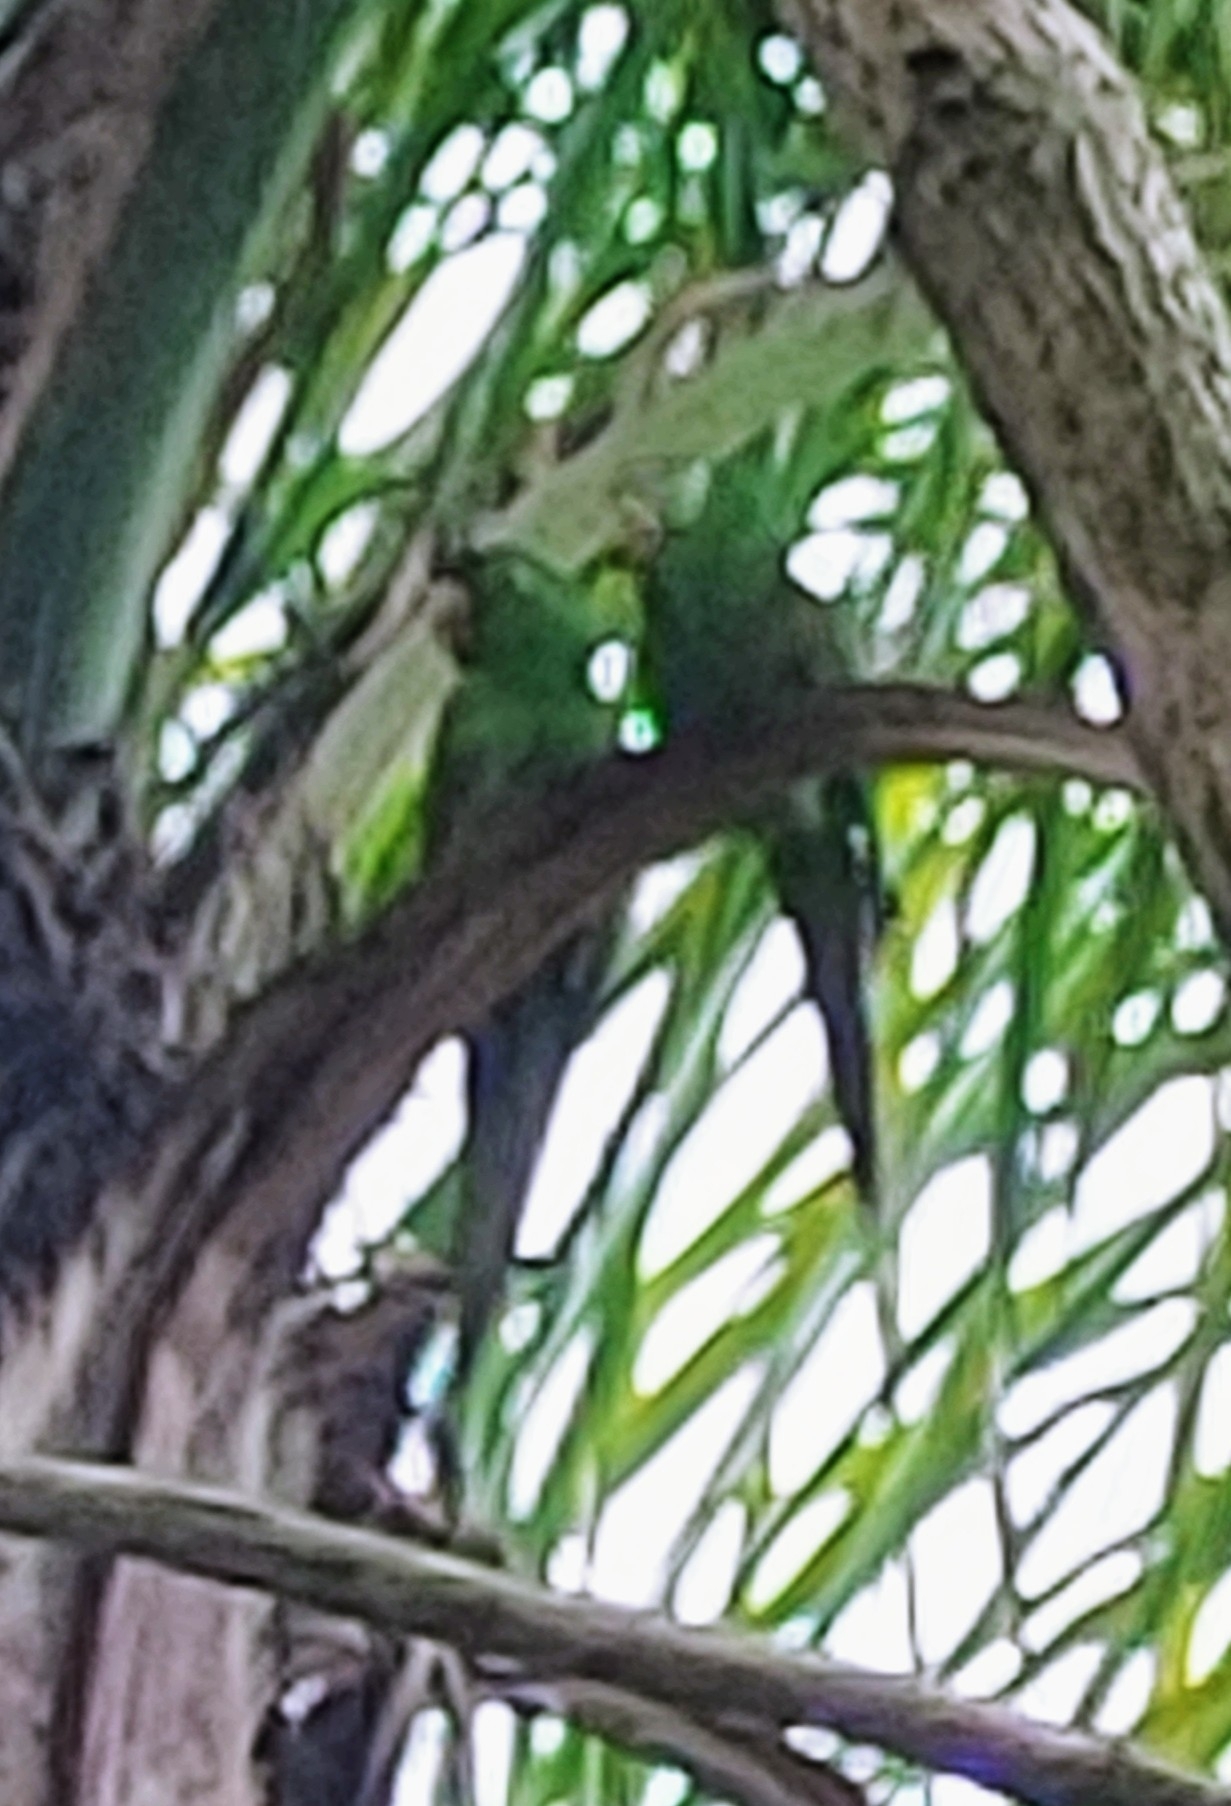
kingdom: Animalia
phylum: Chordata
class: Aves
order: Psittaciformes
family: Psittacidae
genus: Aratinga
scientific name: Aratinga leucophthalma
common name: White-eyed parakeet
